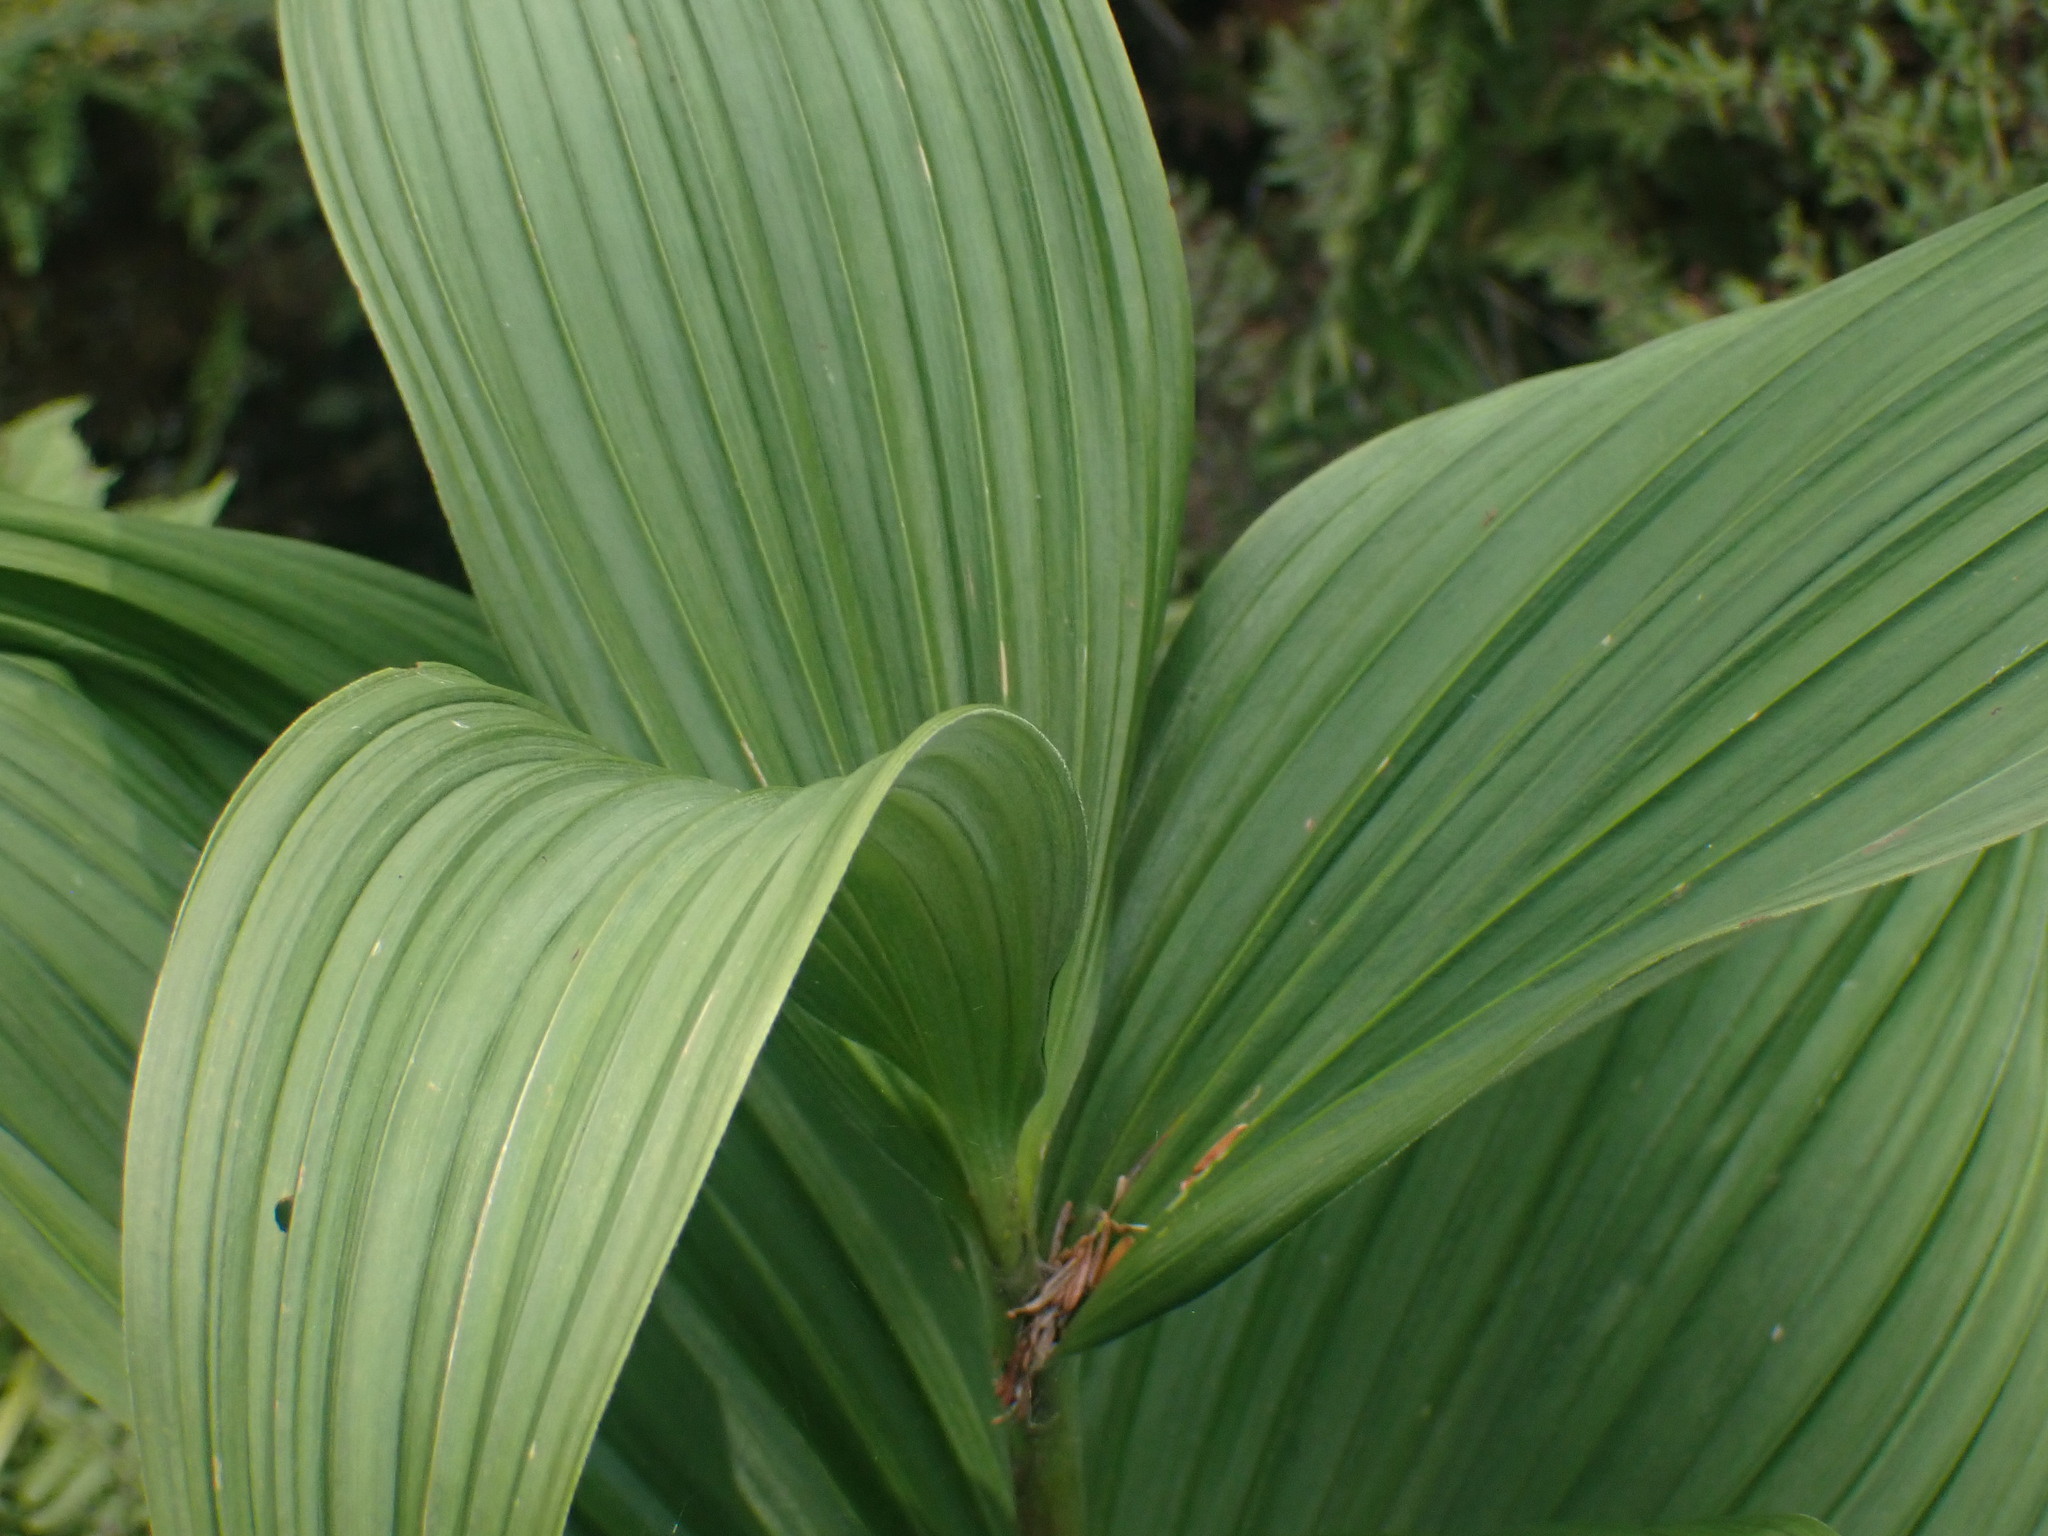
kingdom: Plantae
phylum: Tracheophyta
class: Liliopsida
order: Liliales
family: Melanthiaceae
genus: Veratrum
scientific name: Veratrum viride
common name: American false hellebore
